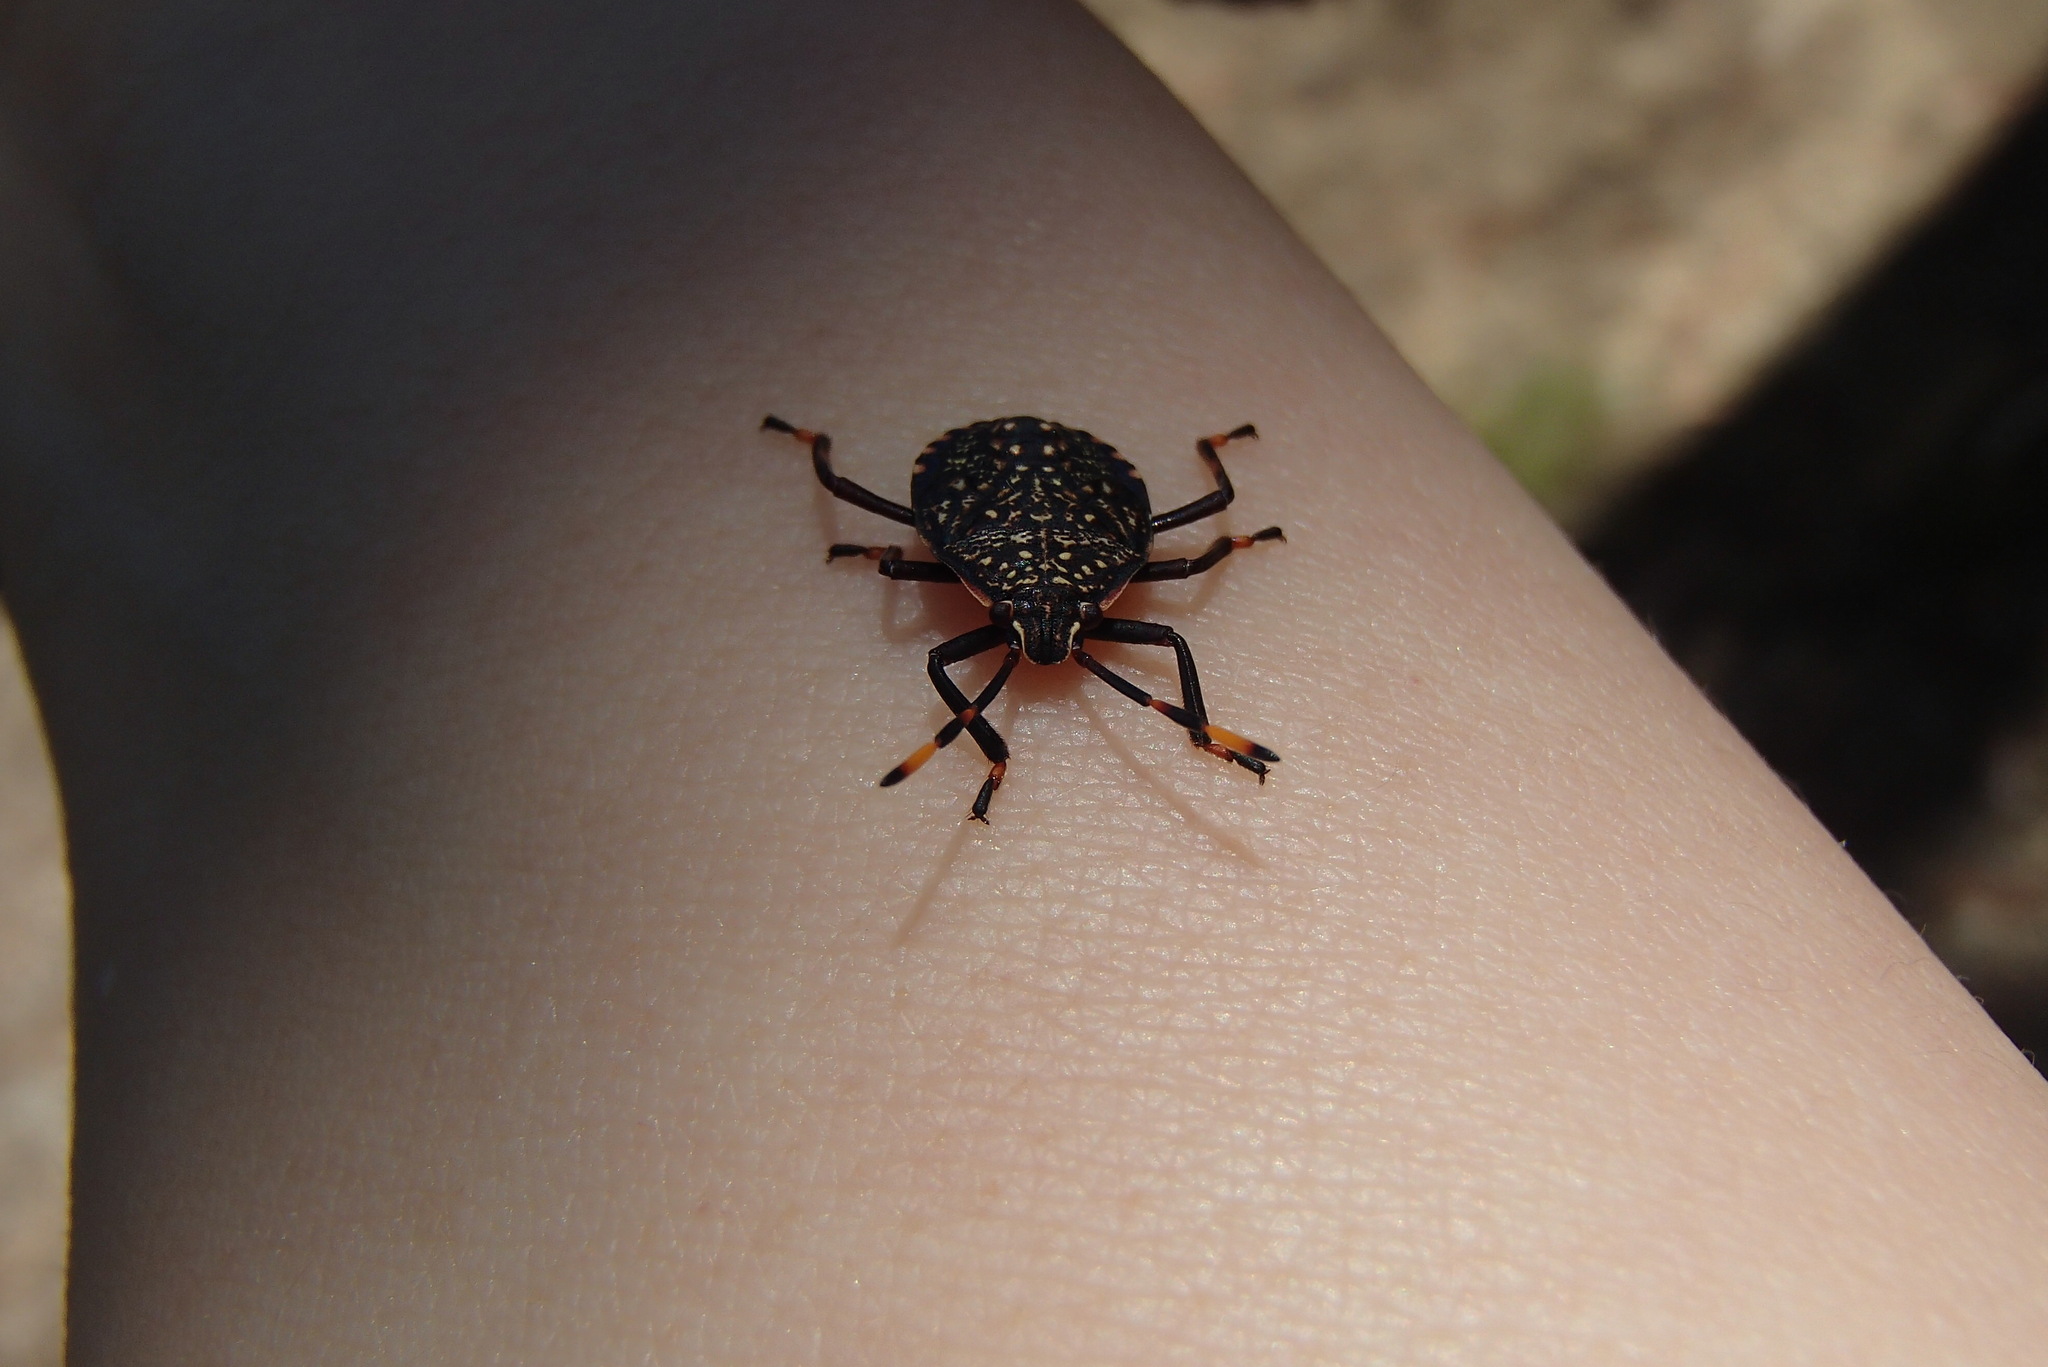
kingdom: Animalia
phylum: Arthropoda
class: Insecta
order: Hemiptera
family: Pentatomidae
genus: Notius
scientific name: Notius
